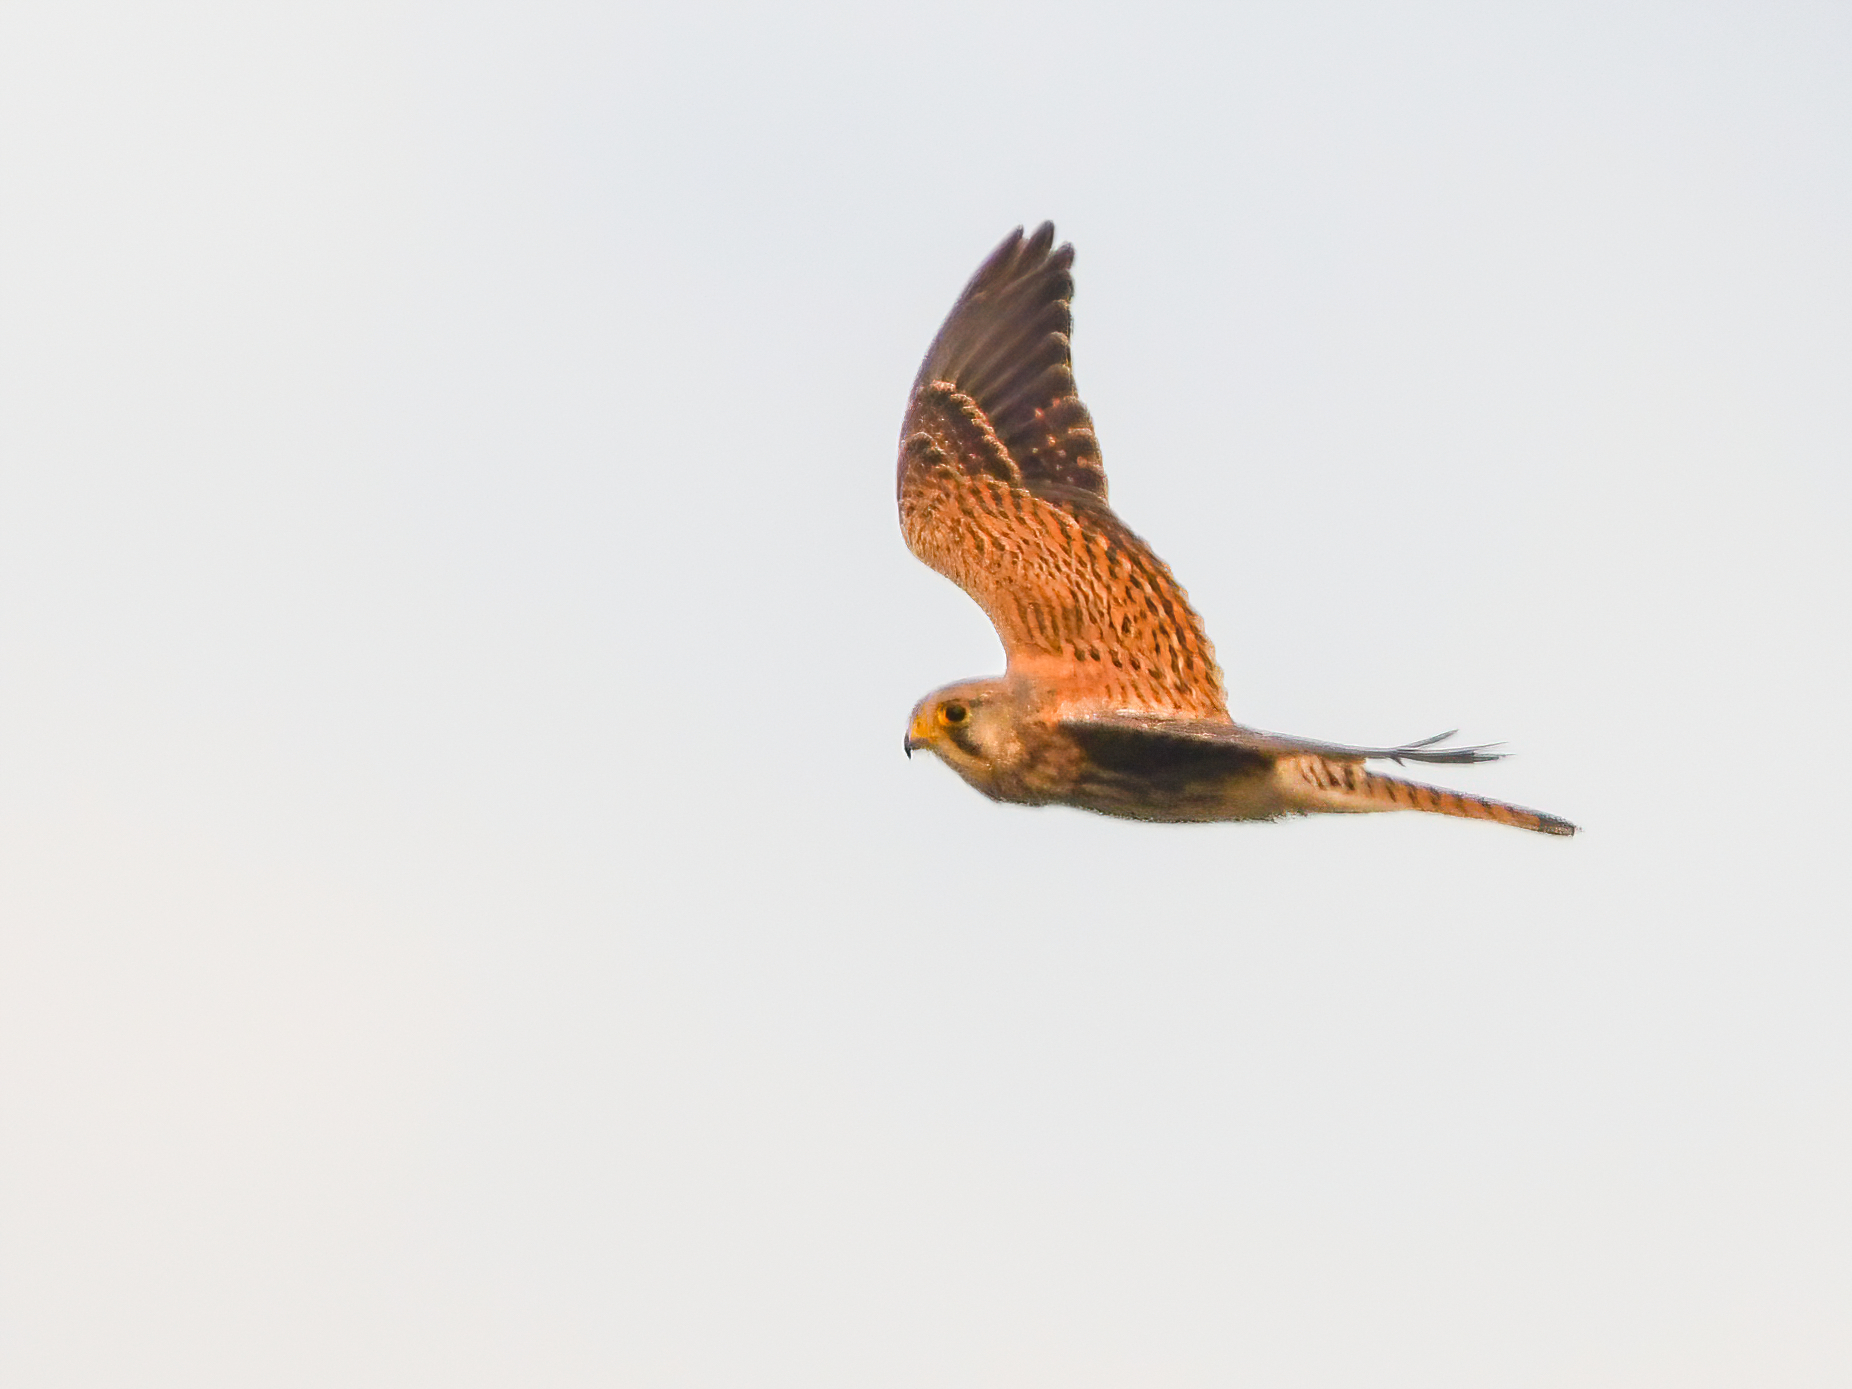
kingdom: Animalia
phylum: Chordata
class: Aves
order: Falconiformes
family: Falconidae
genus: Falco
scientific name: Falco tinnunculus
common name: Common kestrel
